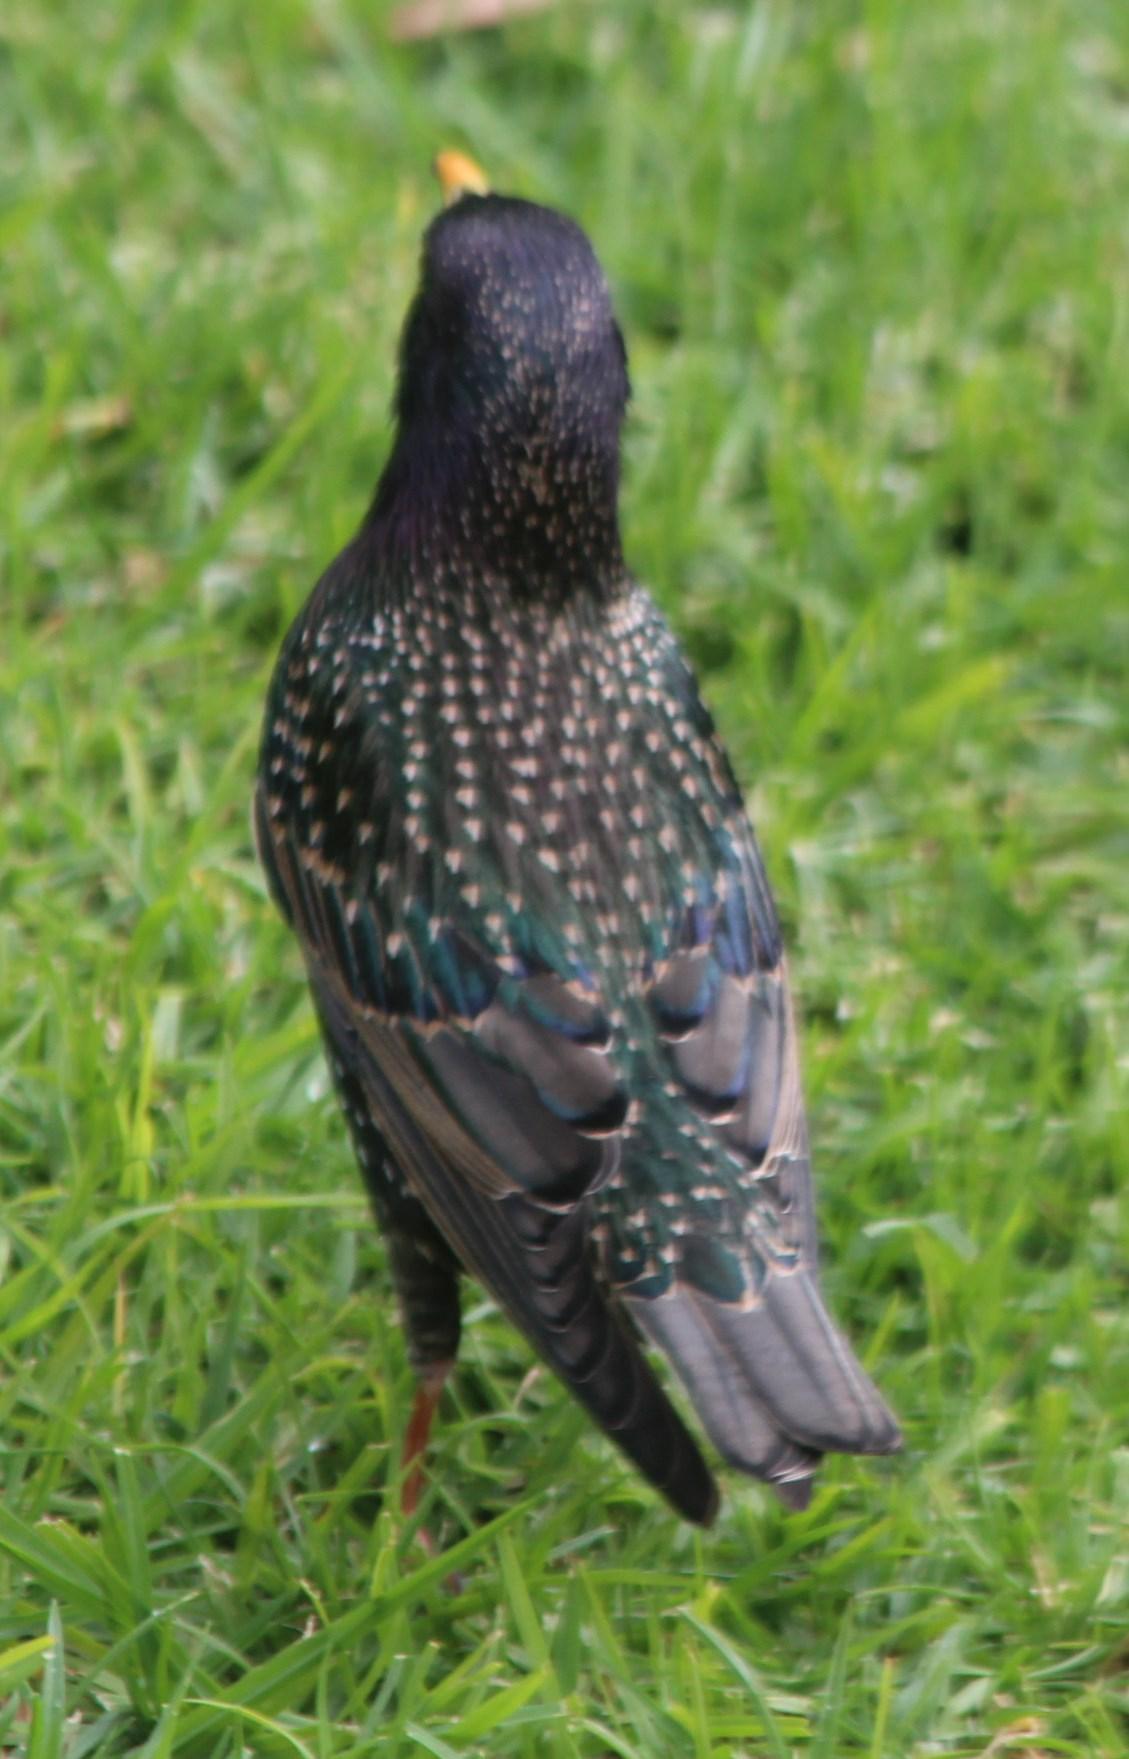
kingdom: Animalia
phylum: Chordata
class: Aves
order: Passeriformes
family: Sturnidae
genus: Sturnus
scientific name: Sturnus vulgaris
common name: Common starling
